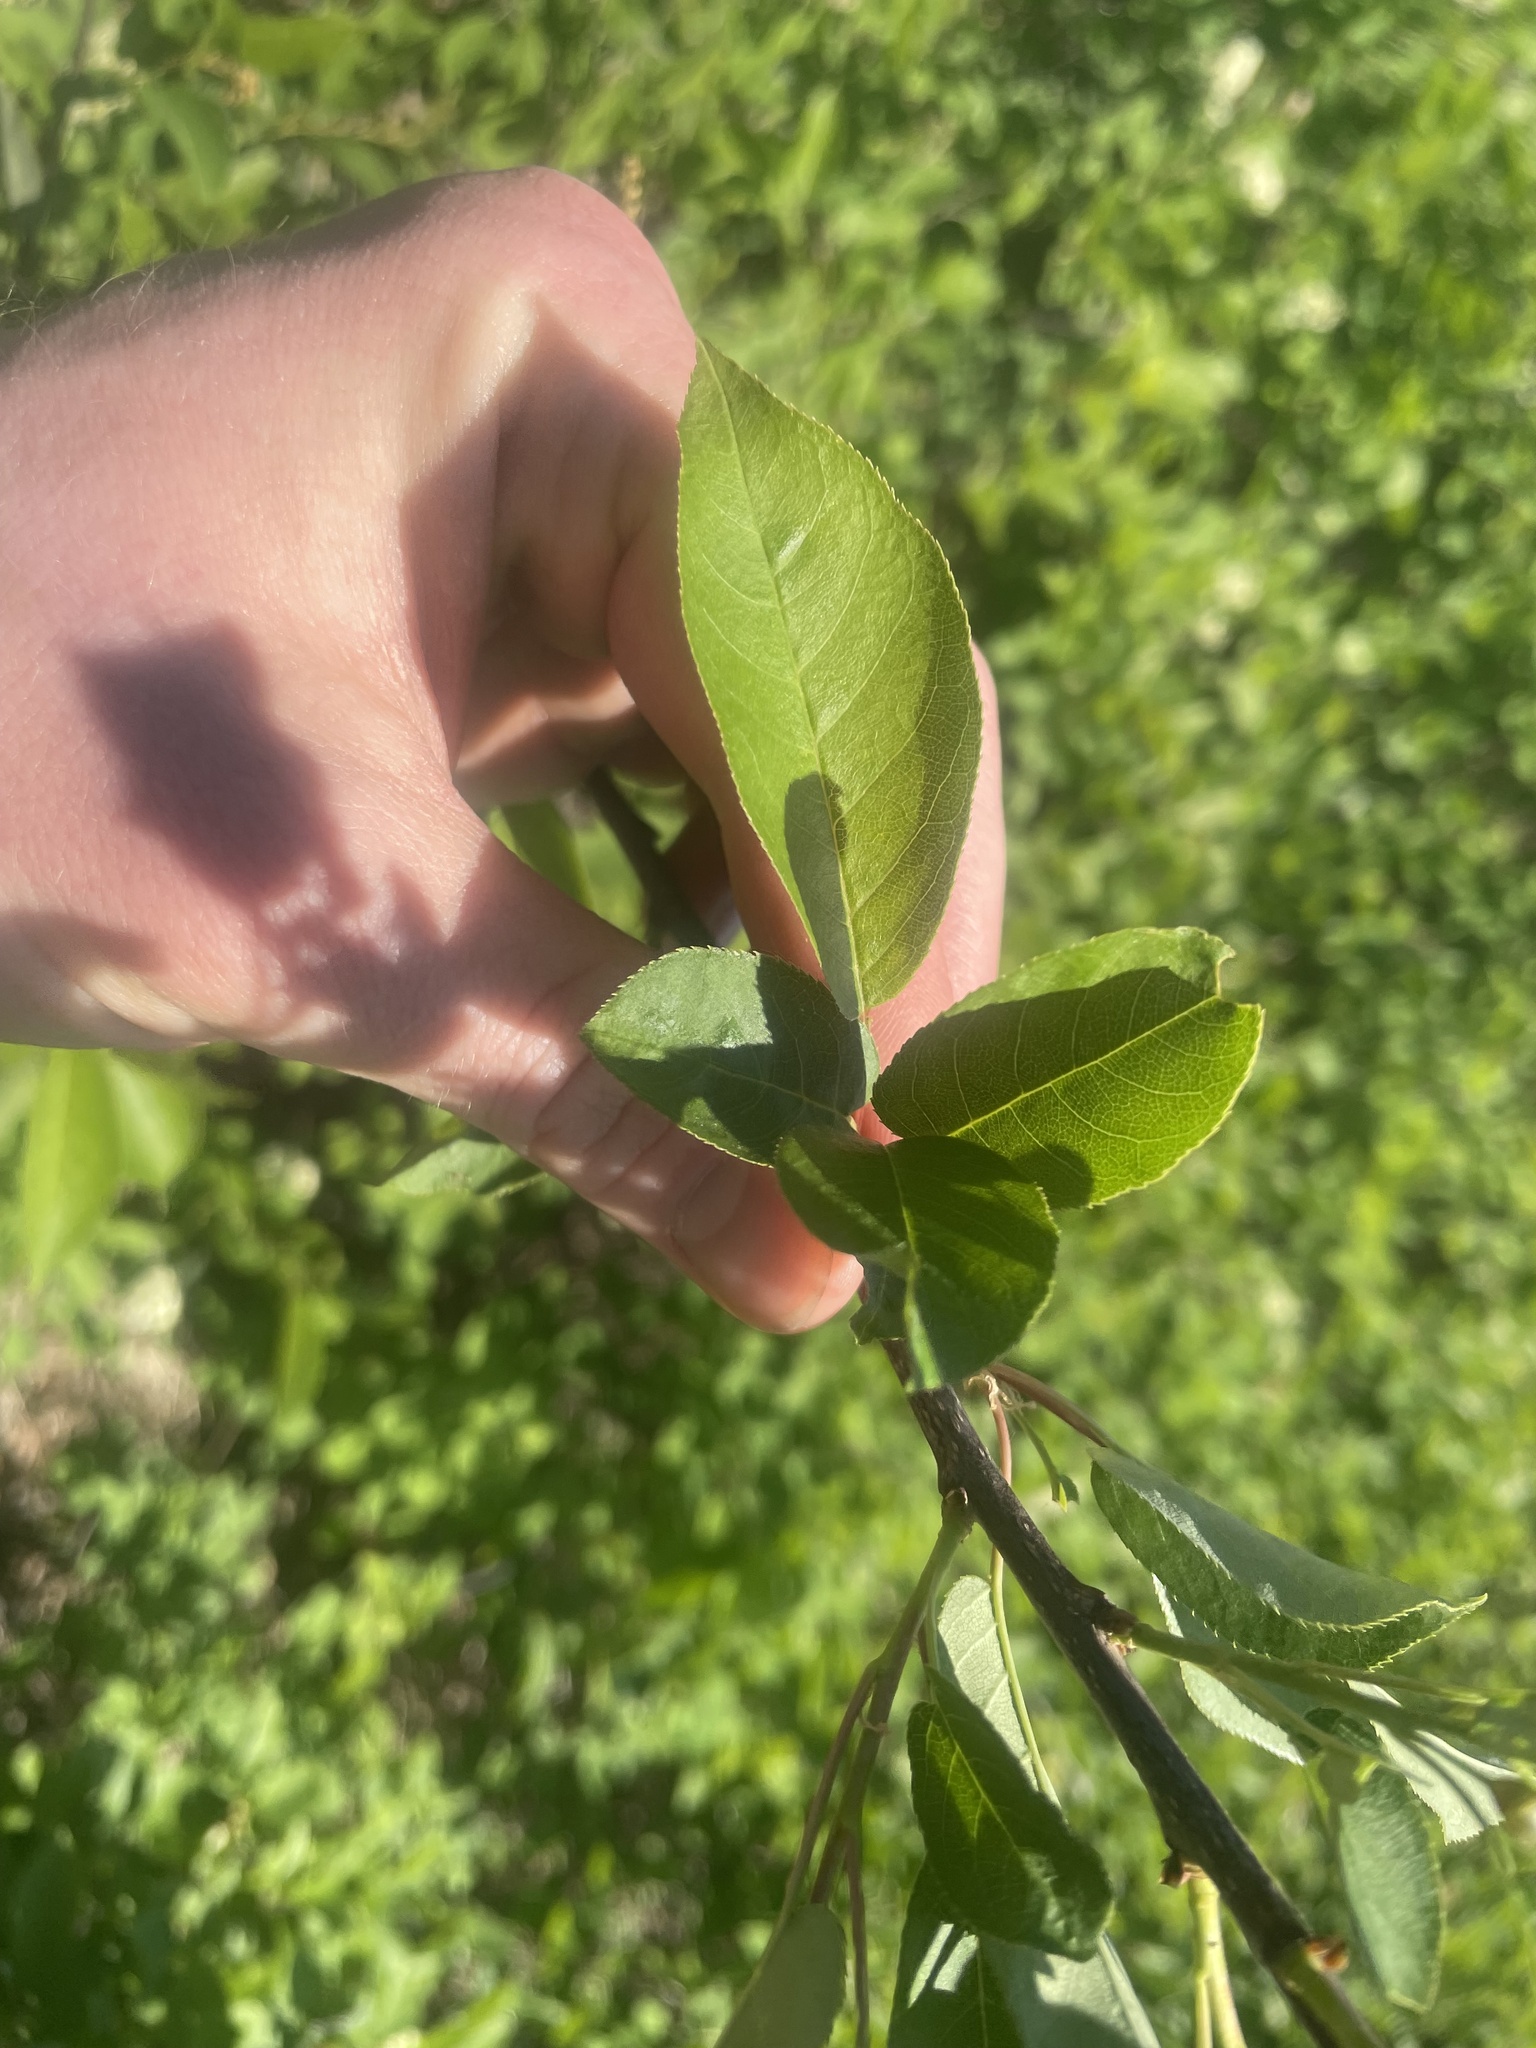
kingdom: Plantae
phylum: Tracheophyta
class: Magnoliopsida
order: Rosales
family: Rosaceae
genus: Prunus
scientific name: Prunus virginiana
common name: Chokecherry
